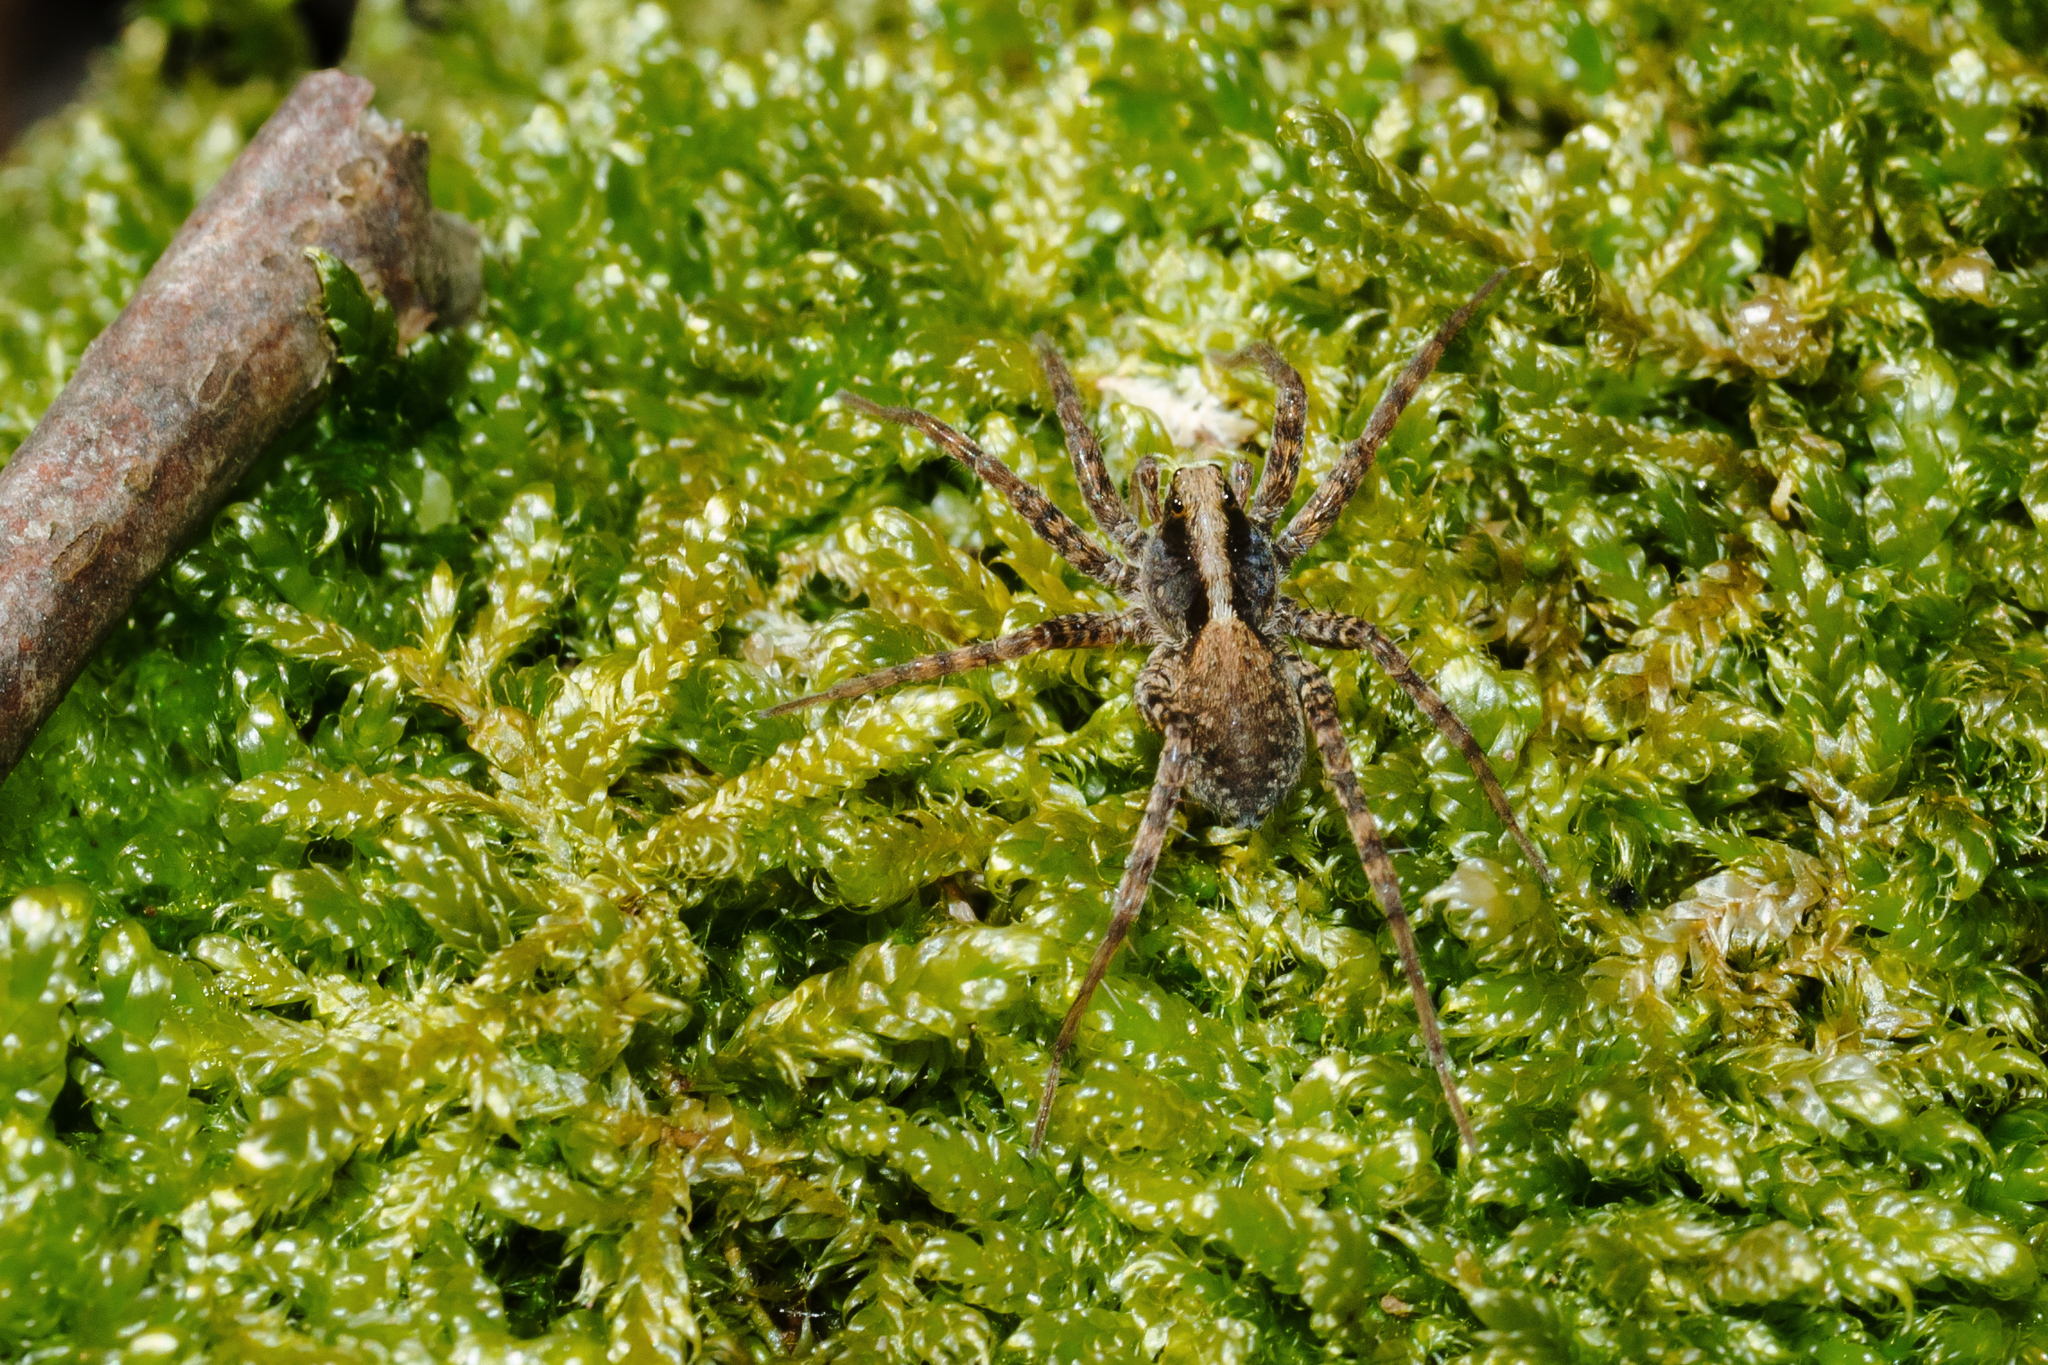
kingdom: Animalia
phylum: Arthropoda
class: Arachnida
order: Araneae
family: Lycosidae
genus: Pardosa
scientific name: Pardosa
